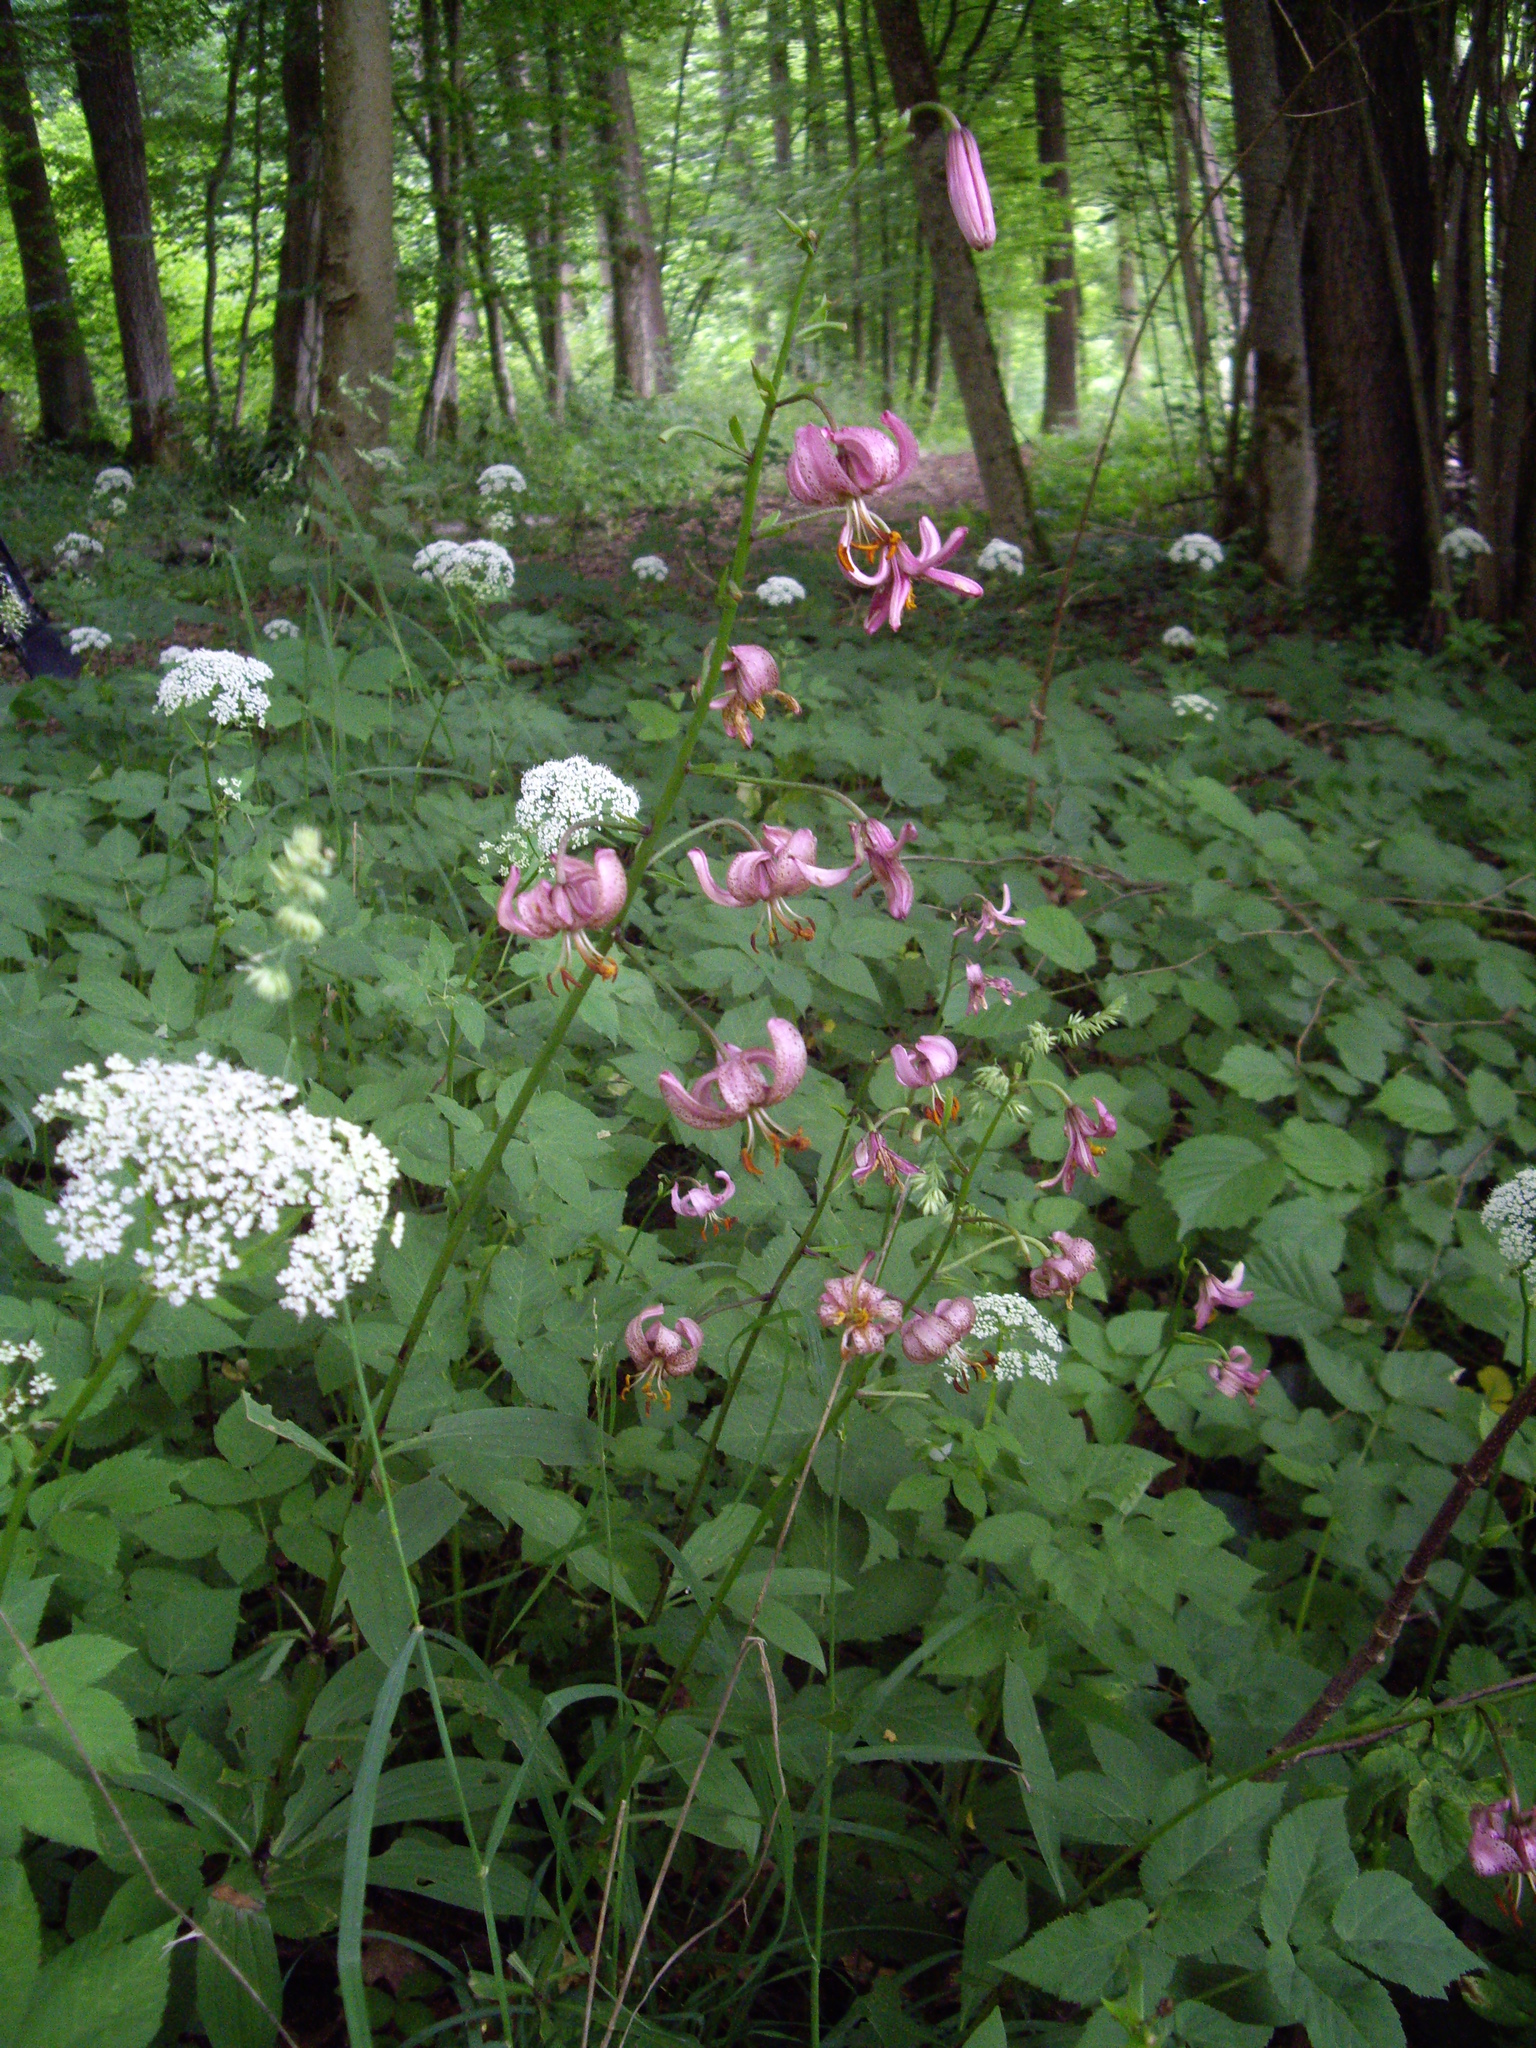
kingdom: Plantae
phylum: Tracheophyta
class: Liliopsida
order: Liliales
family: Liliaceae
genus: Lilium
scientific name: Lilium martagon
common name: Martagon lily
